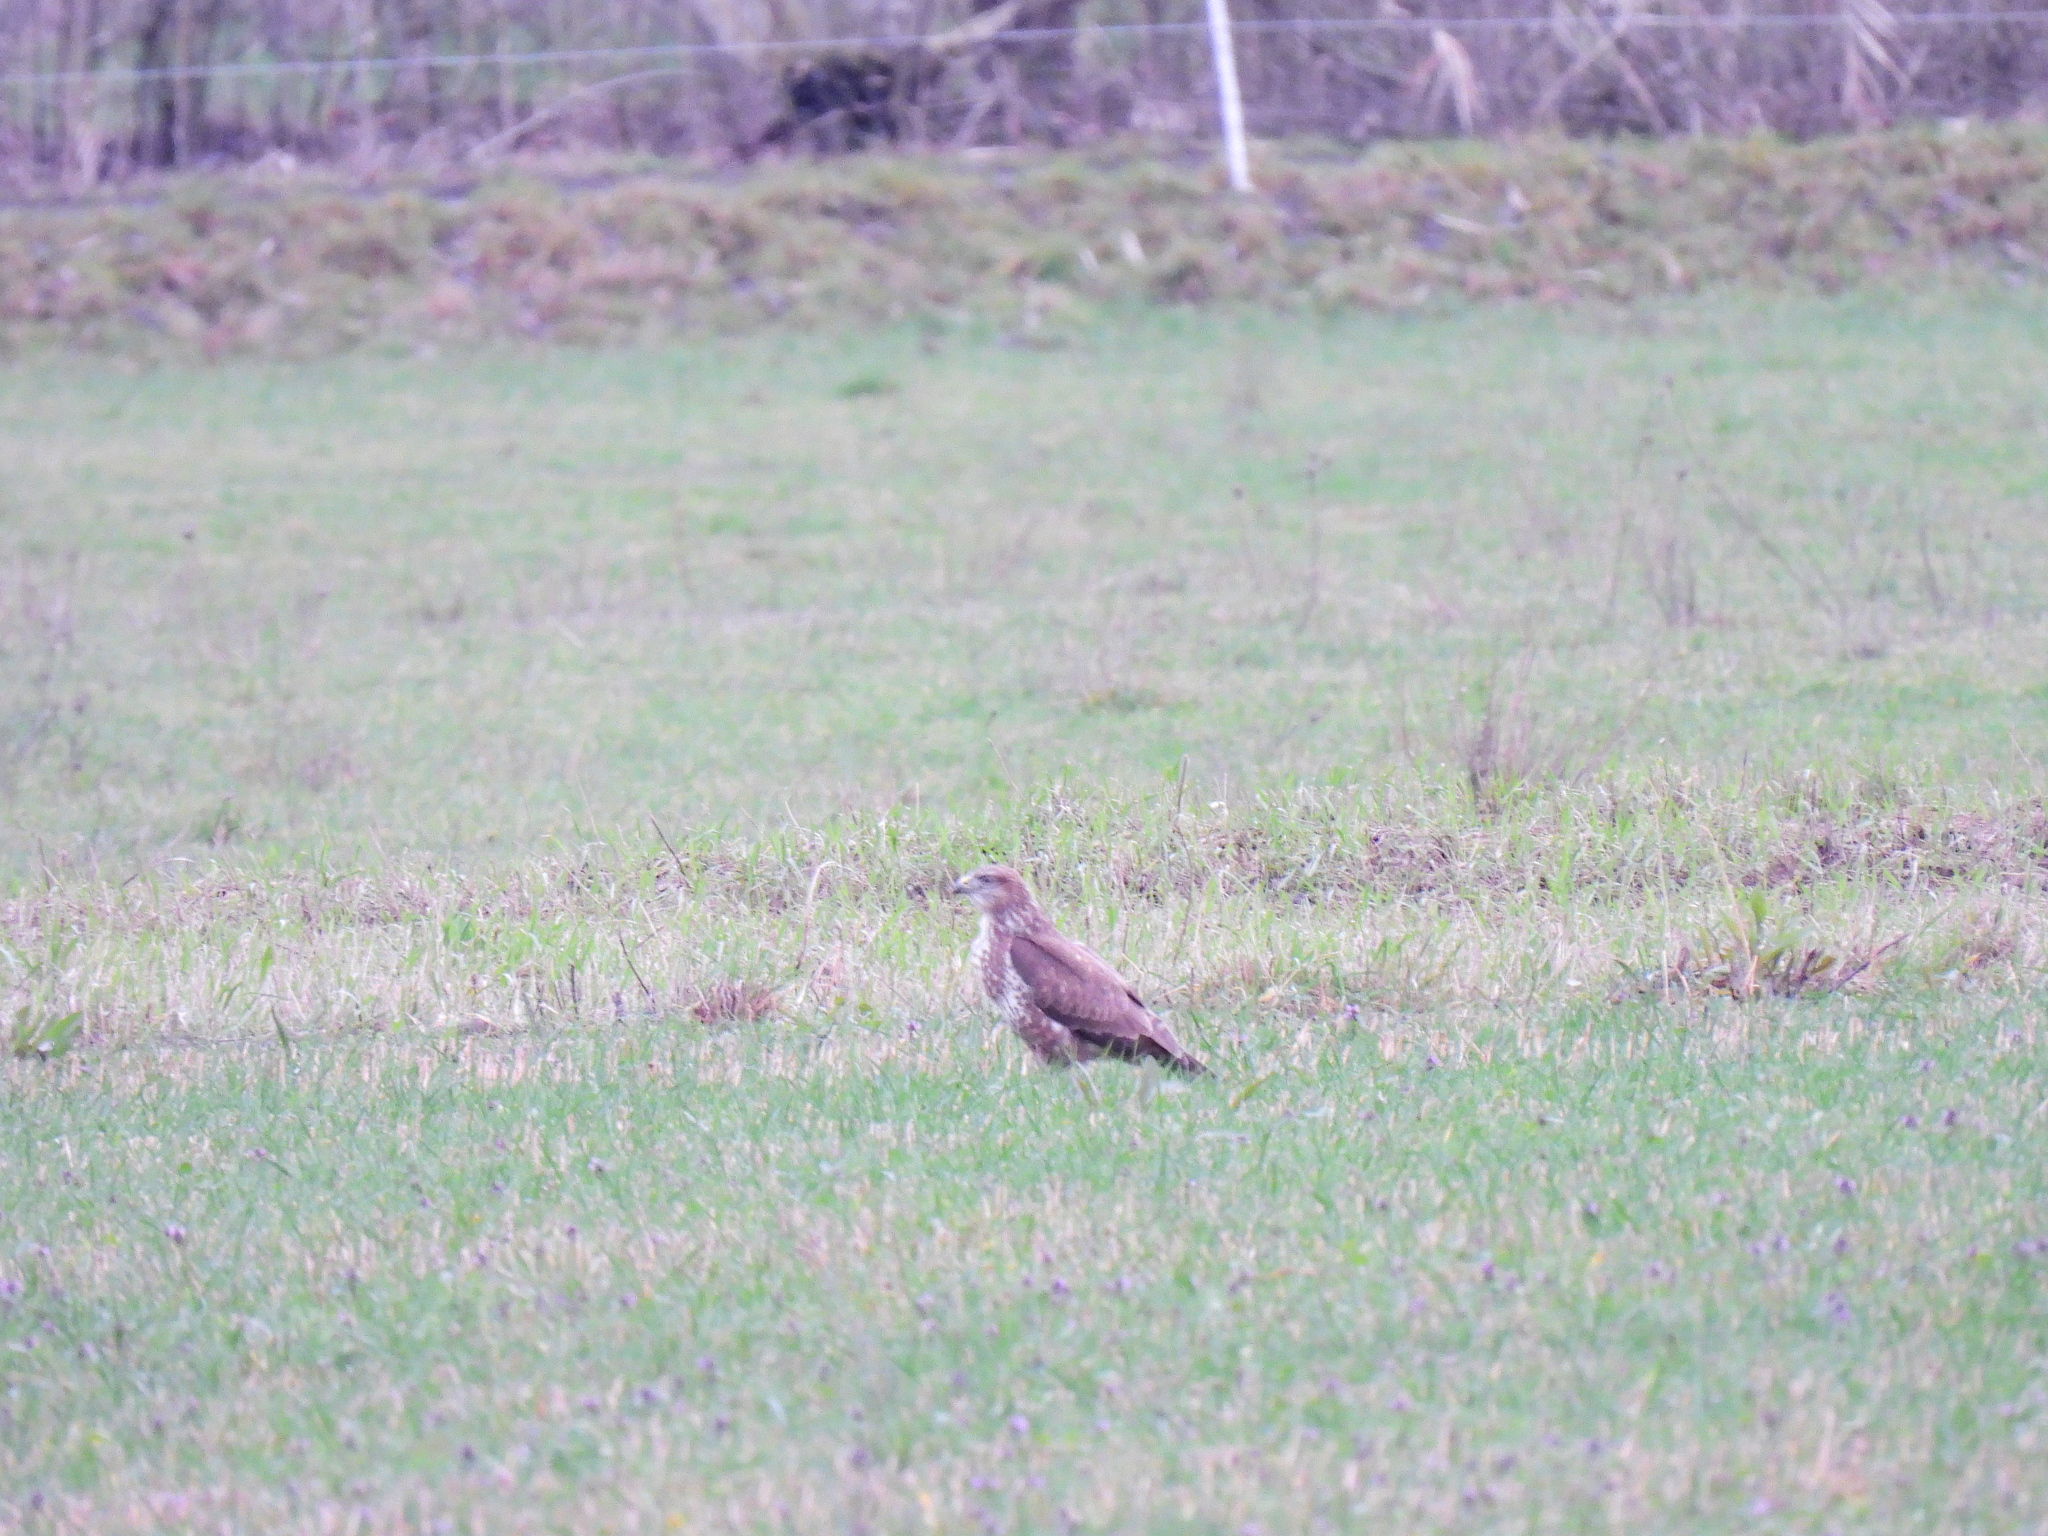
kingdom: Animalia
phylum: Chordata
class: Aves
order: Accipitriformes
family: Accipitridae
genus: Buteo
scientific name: Buteo buteo
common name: Common buzzard
